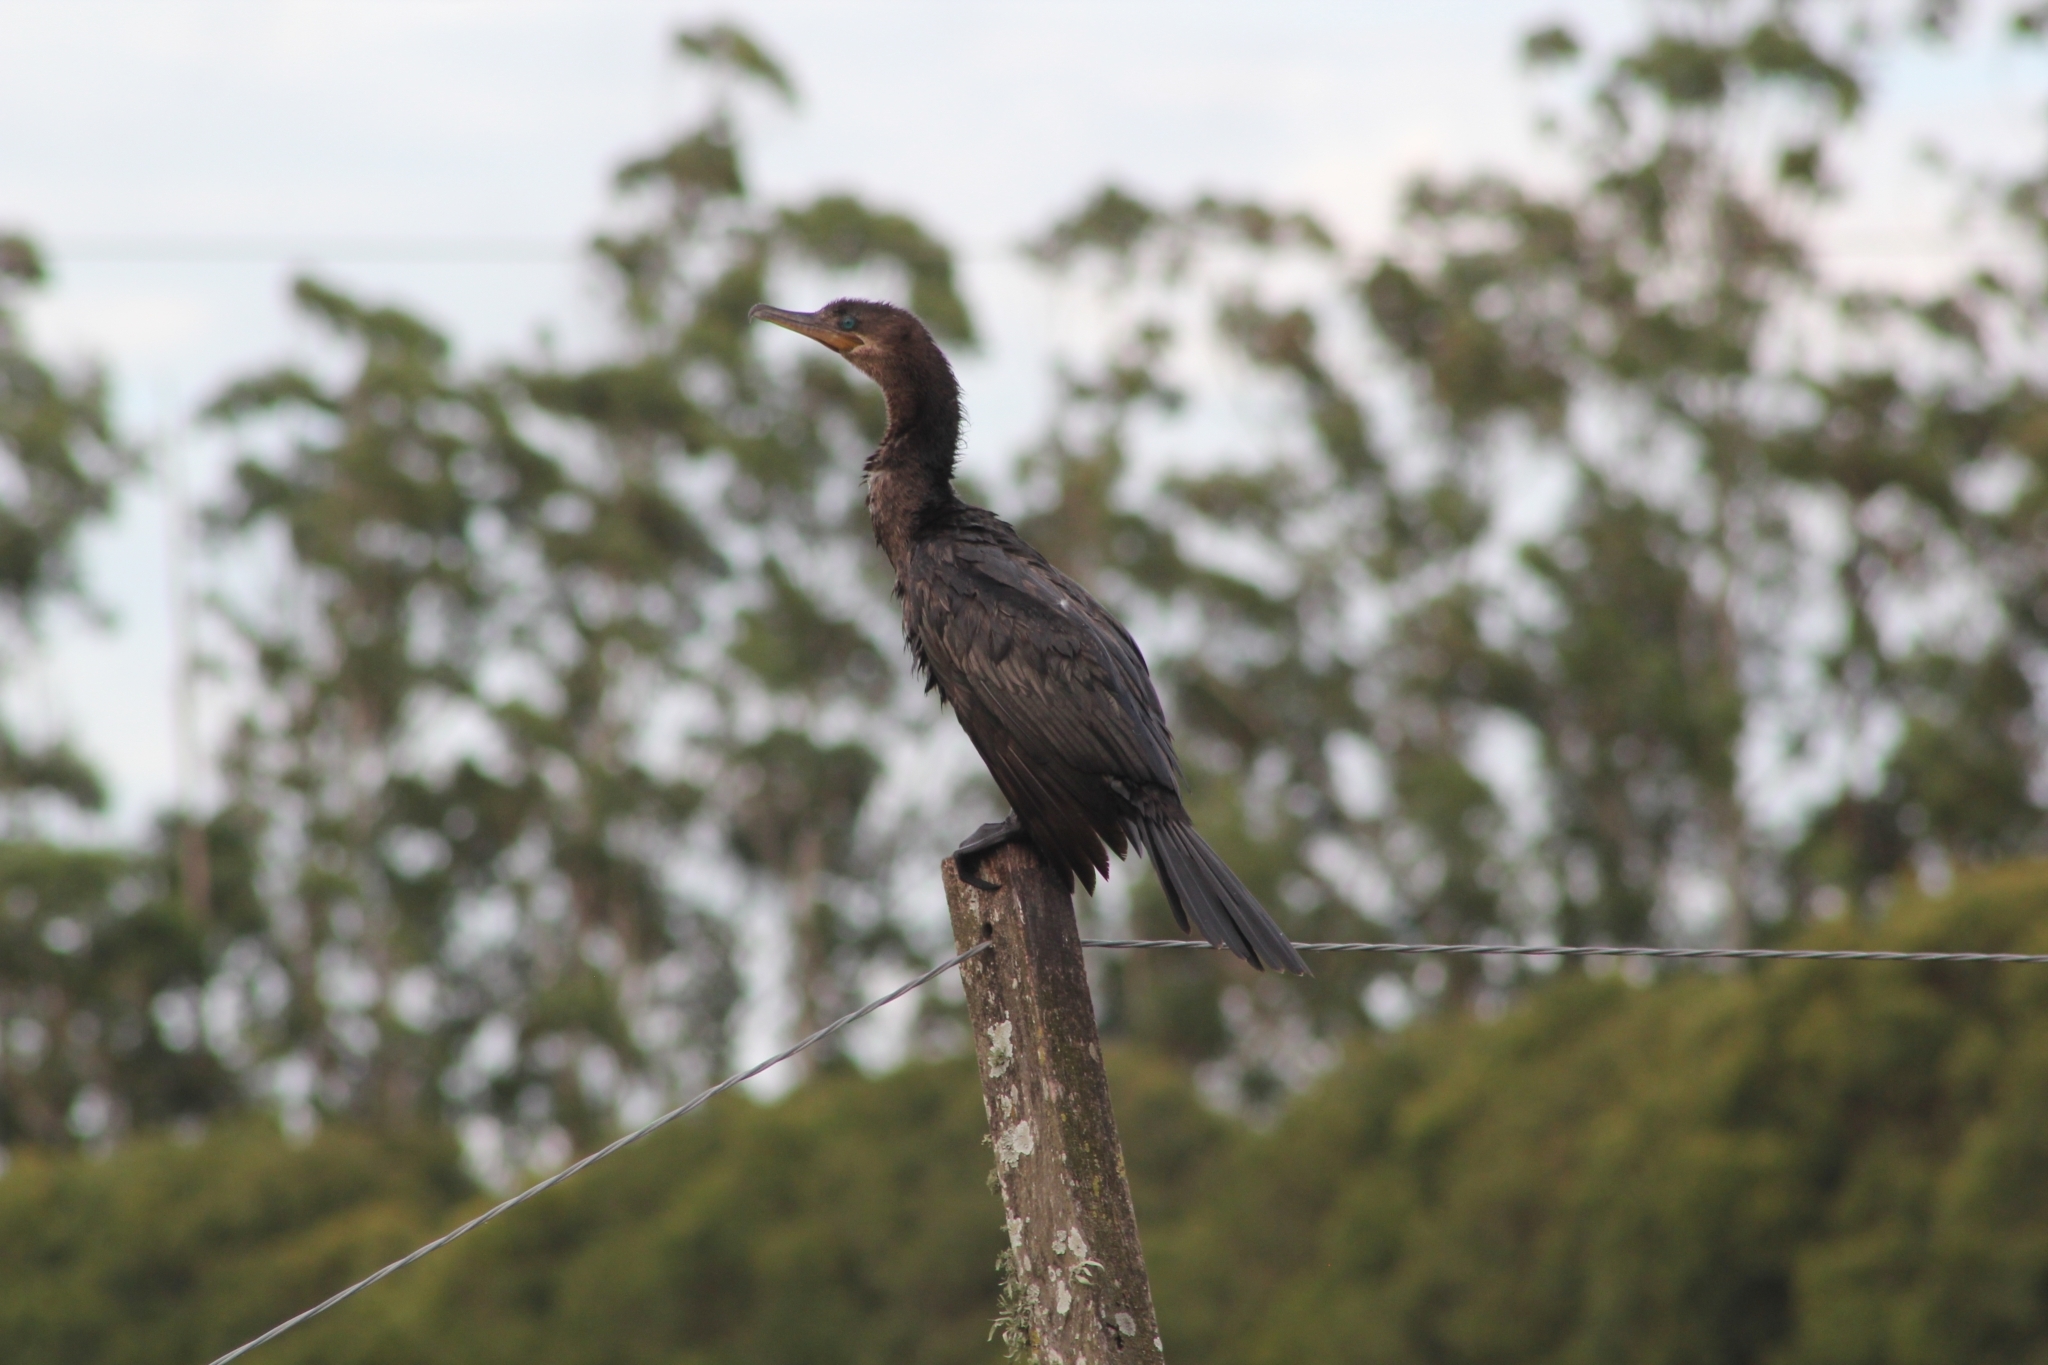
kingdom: Animalia
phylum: Chordata
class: Aves
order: Suliformes
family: Phalacrocoracidae
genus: Phalacrocorax
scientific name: Phalacrocorax brasilianus
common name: Neotropic cormorant
